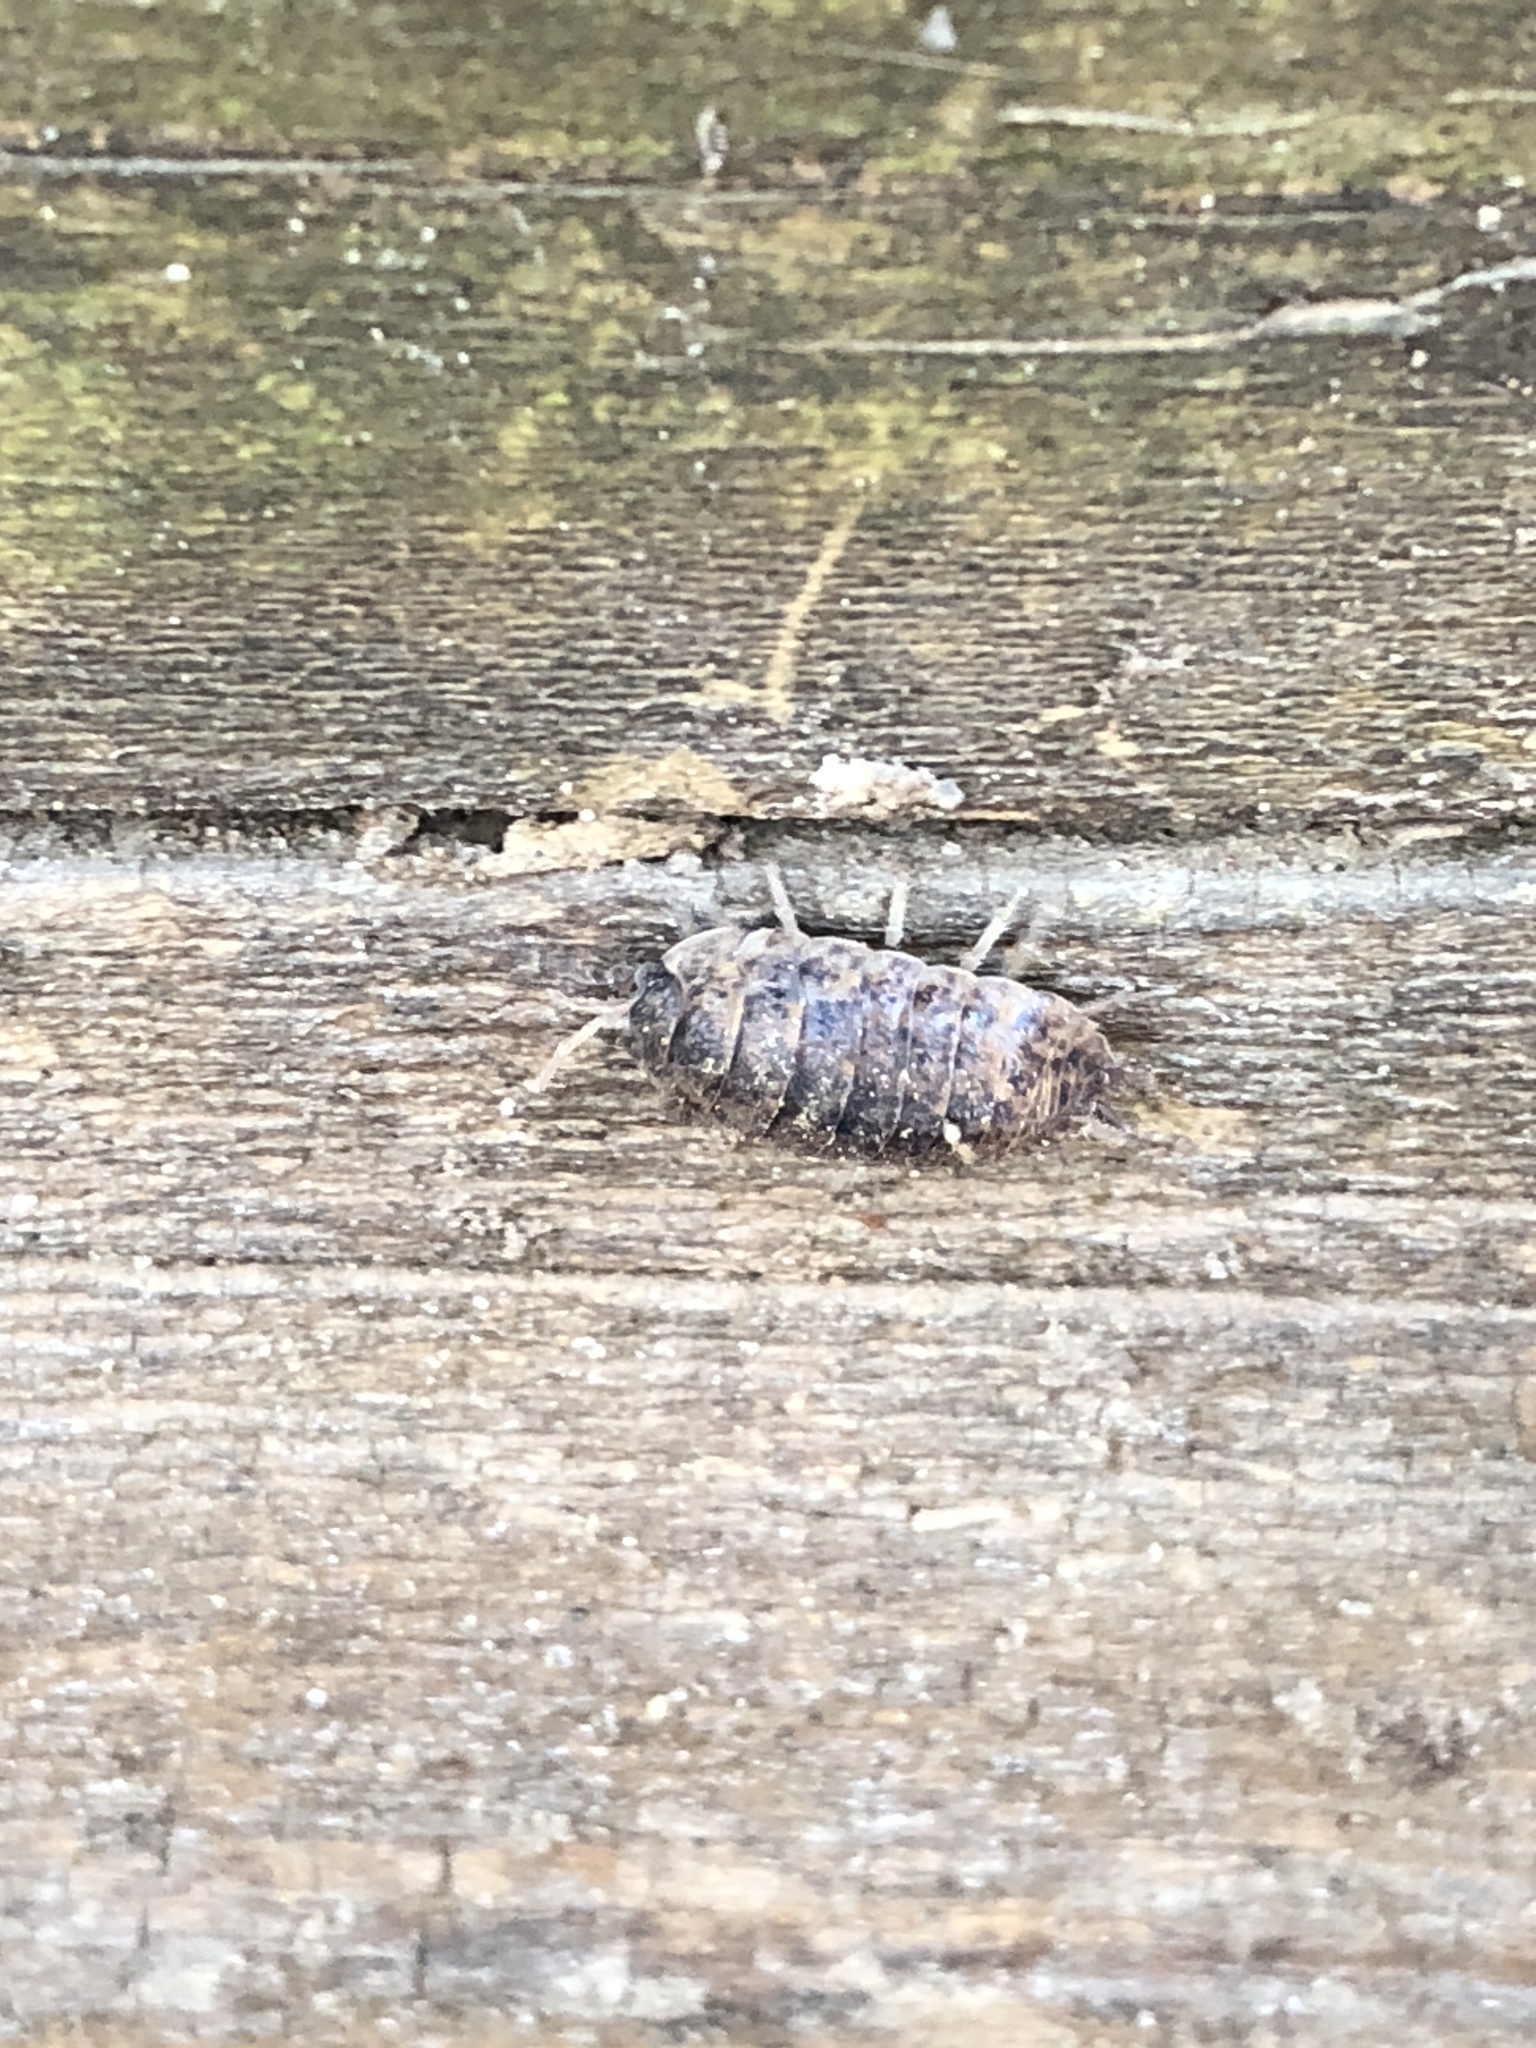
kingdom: Animalia
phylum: Arthropoda
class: Malacostraca
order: Isopoda
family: Trachelipodidae
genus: Trachelipus
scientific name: Trachelipus rathkii
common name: Isopod
